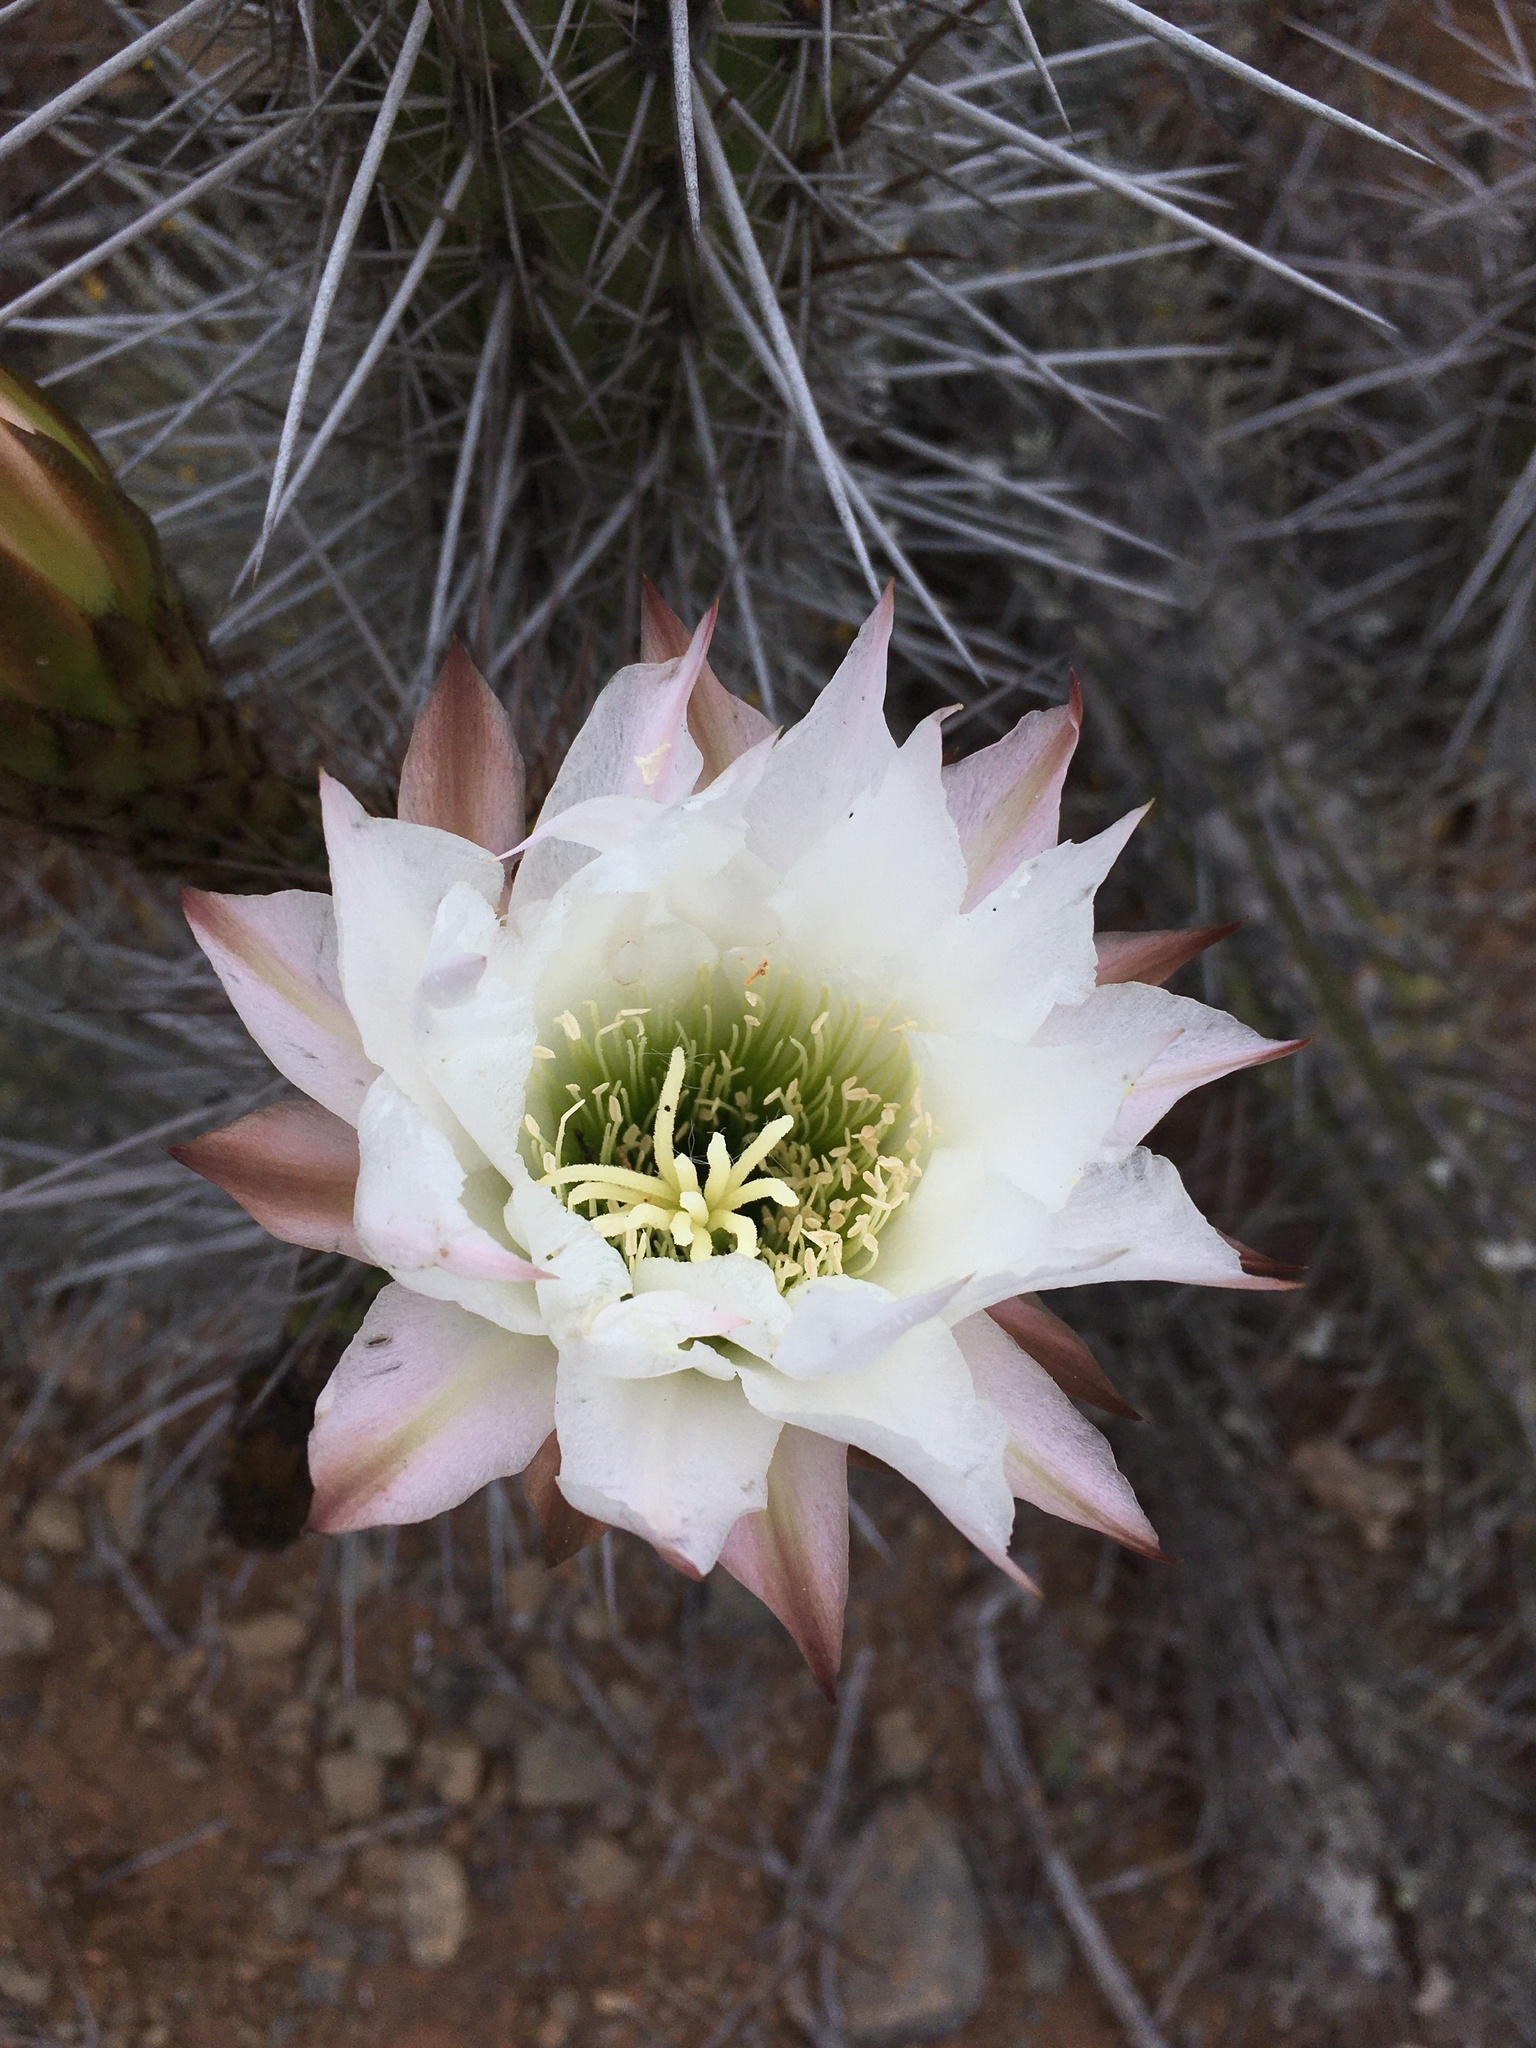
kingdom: Plantae
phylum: Tracheophyta
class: Magnoliopsida
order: Caryophyllales
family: Cactaceae
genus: Leucostele
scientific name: Leucostele deserticola
